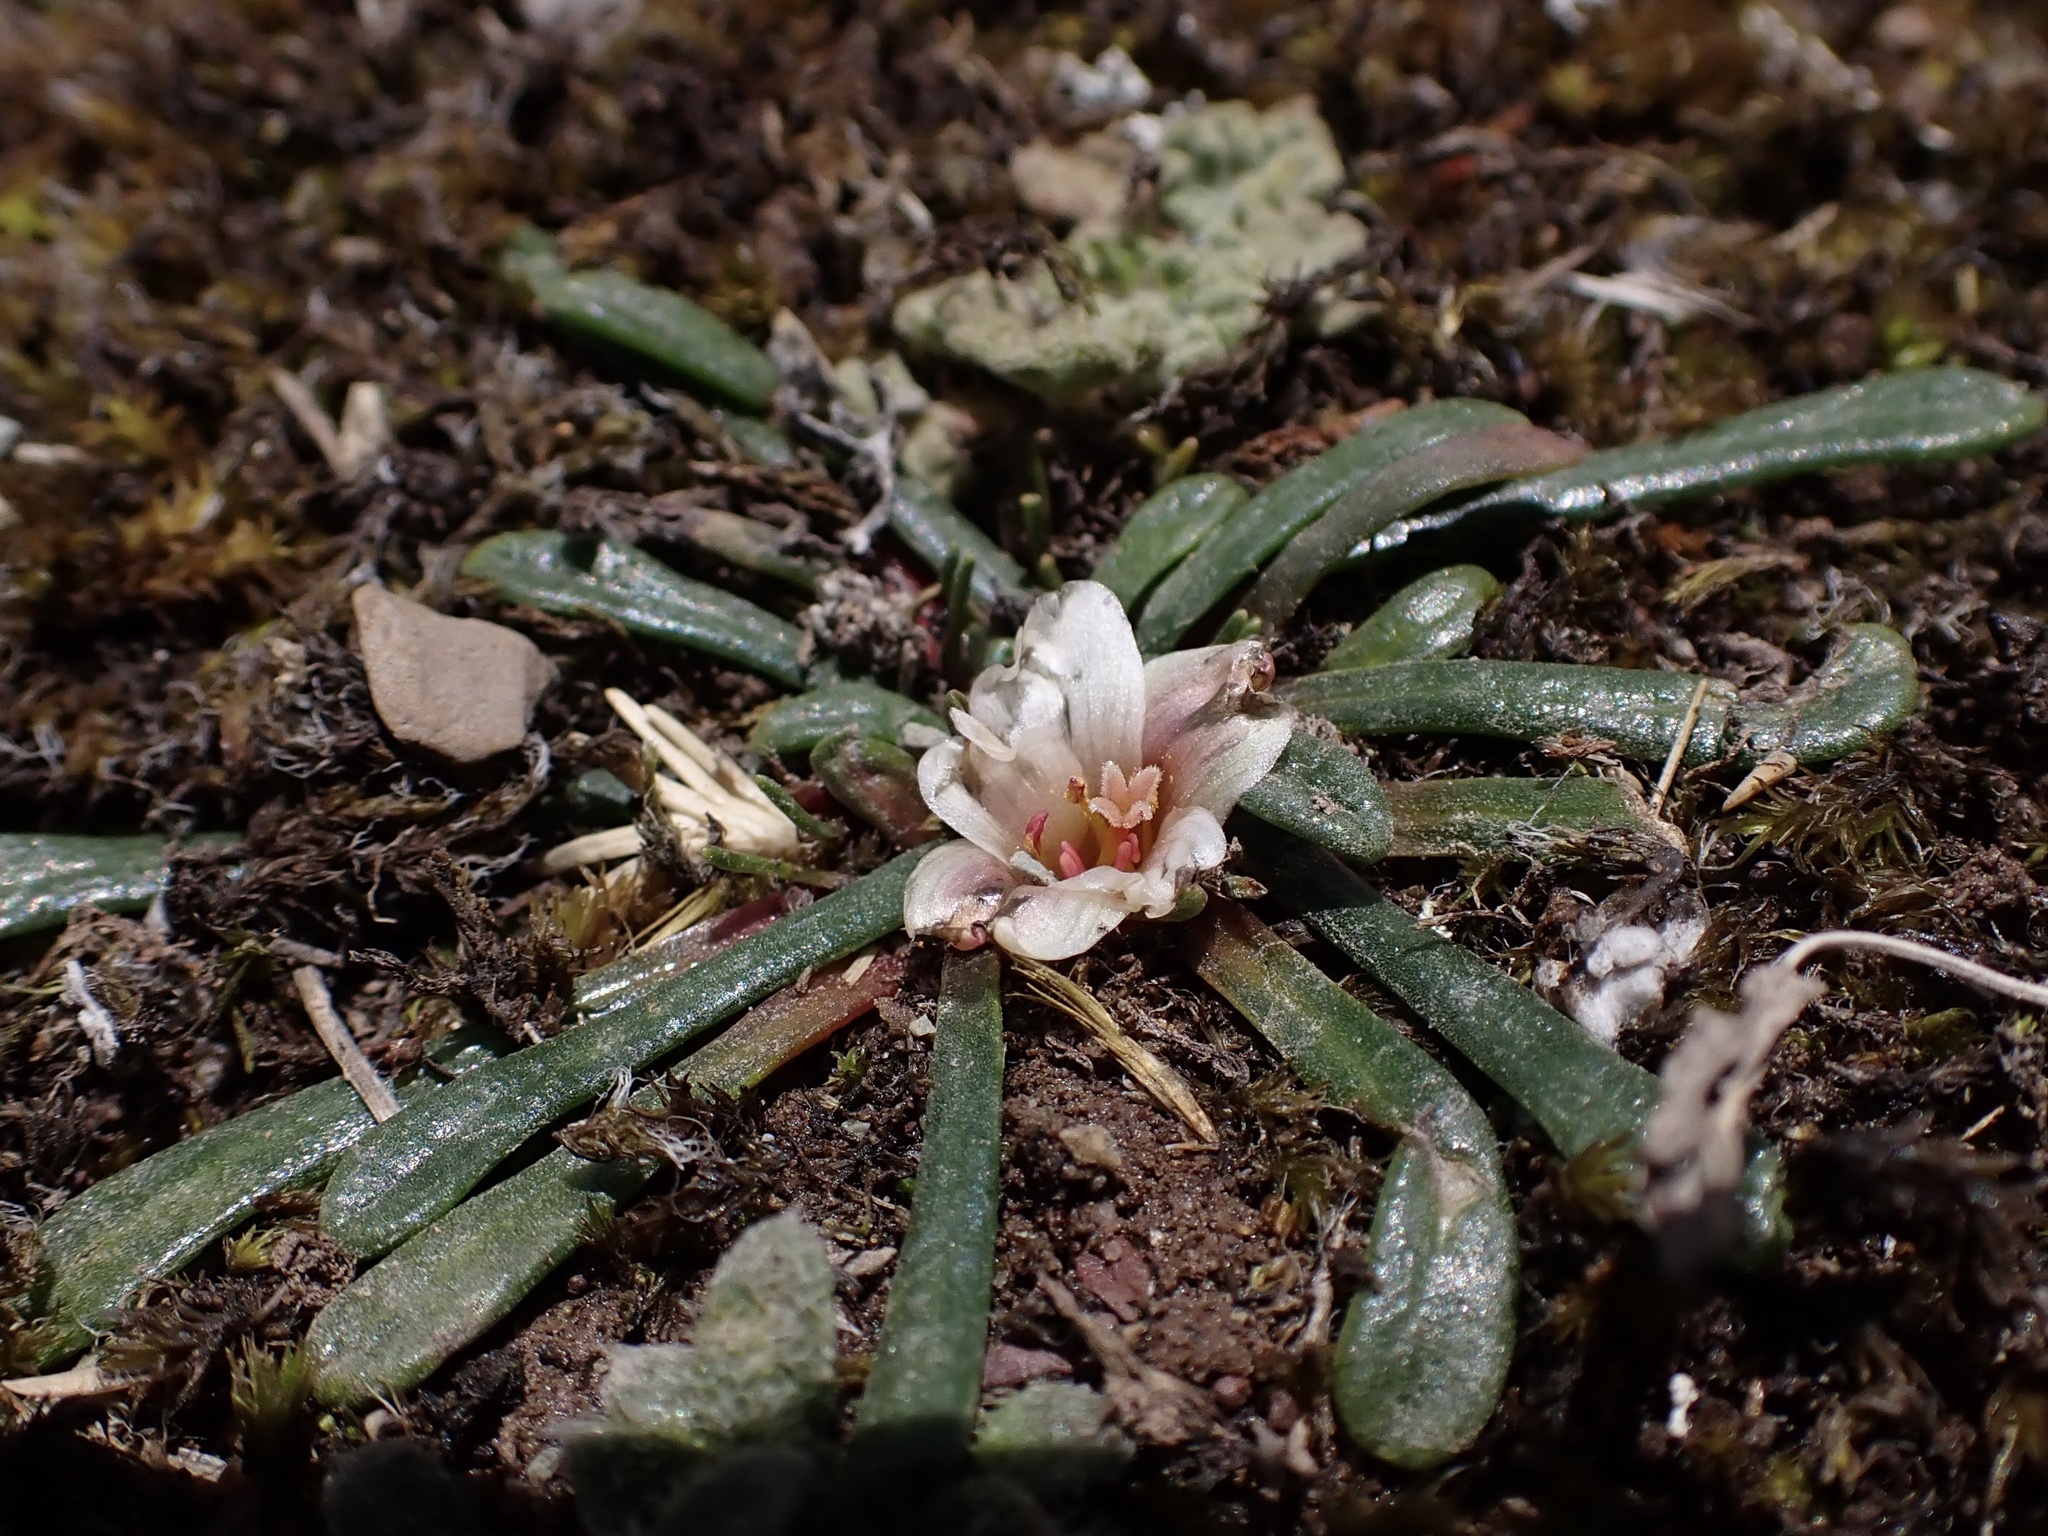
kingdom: Plantae
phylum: Tracheophyta
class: Magnoliopsida
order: Caryophyllales
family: Montiaceae
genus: Calandrinia
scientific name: Calandrinia acaulis
